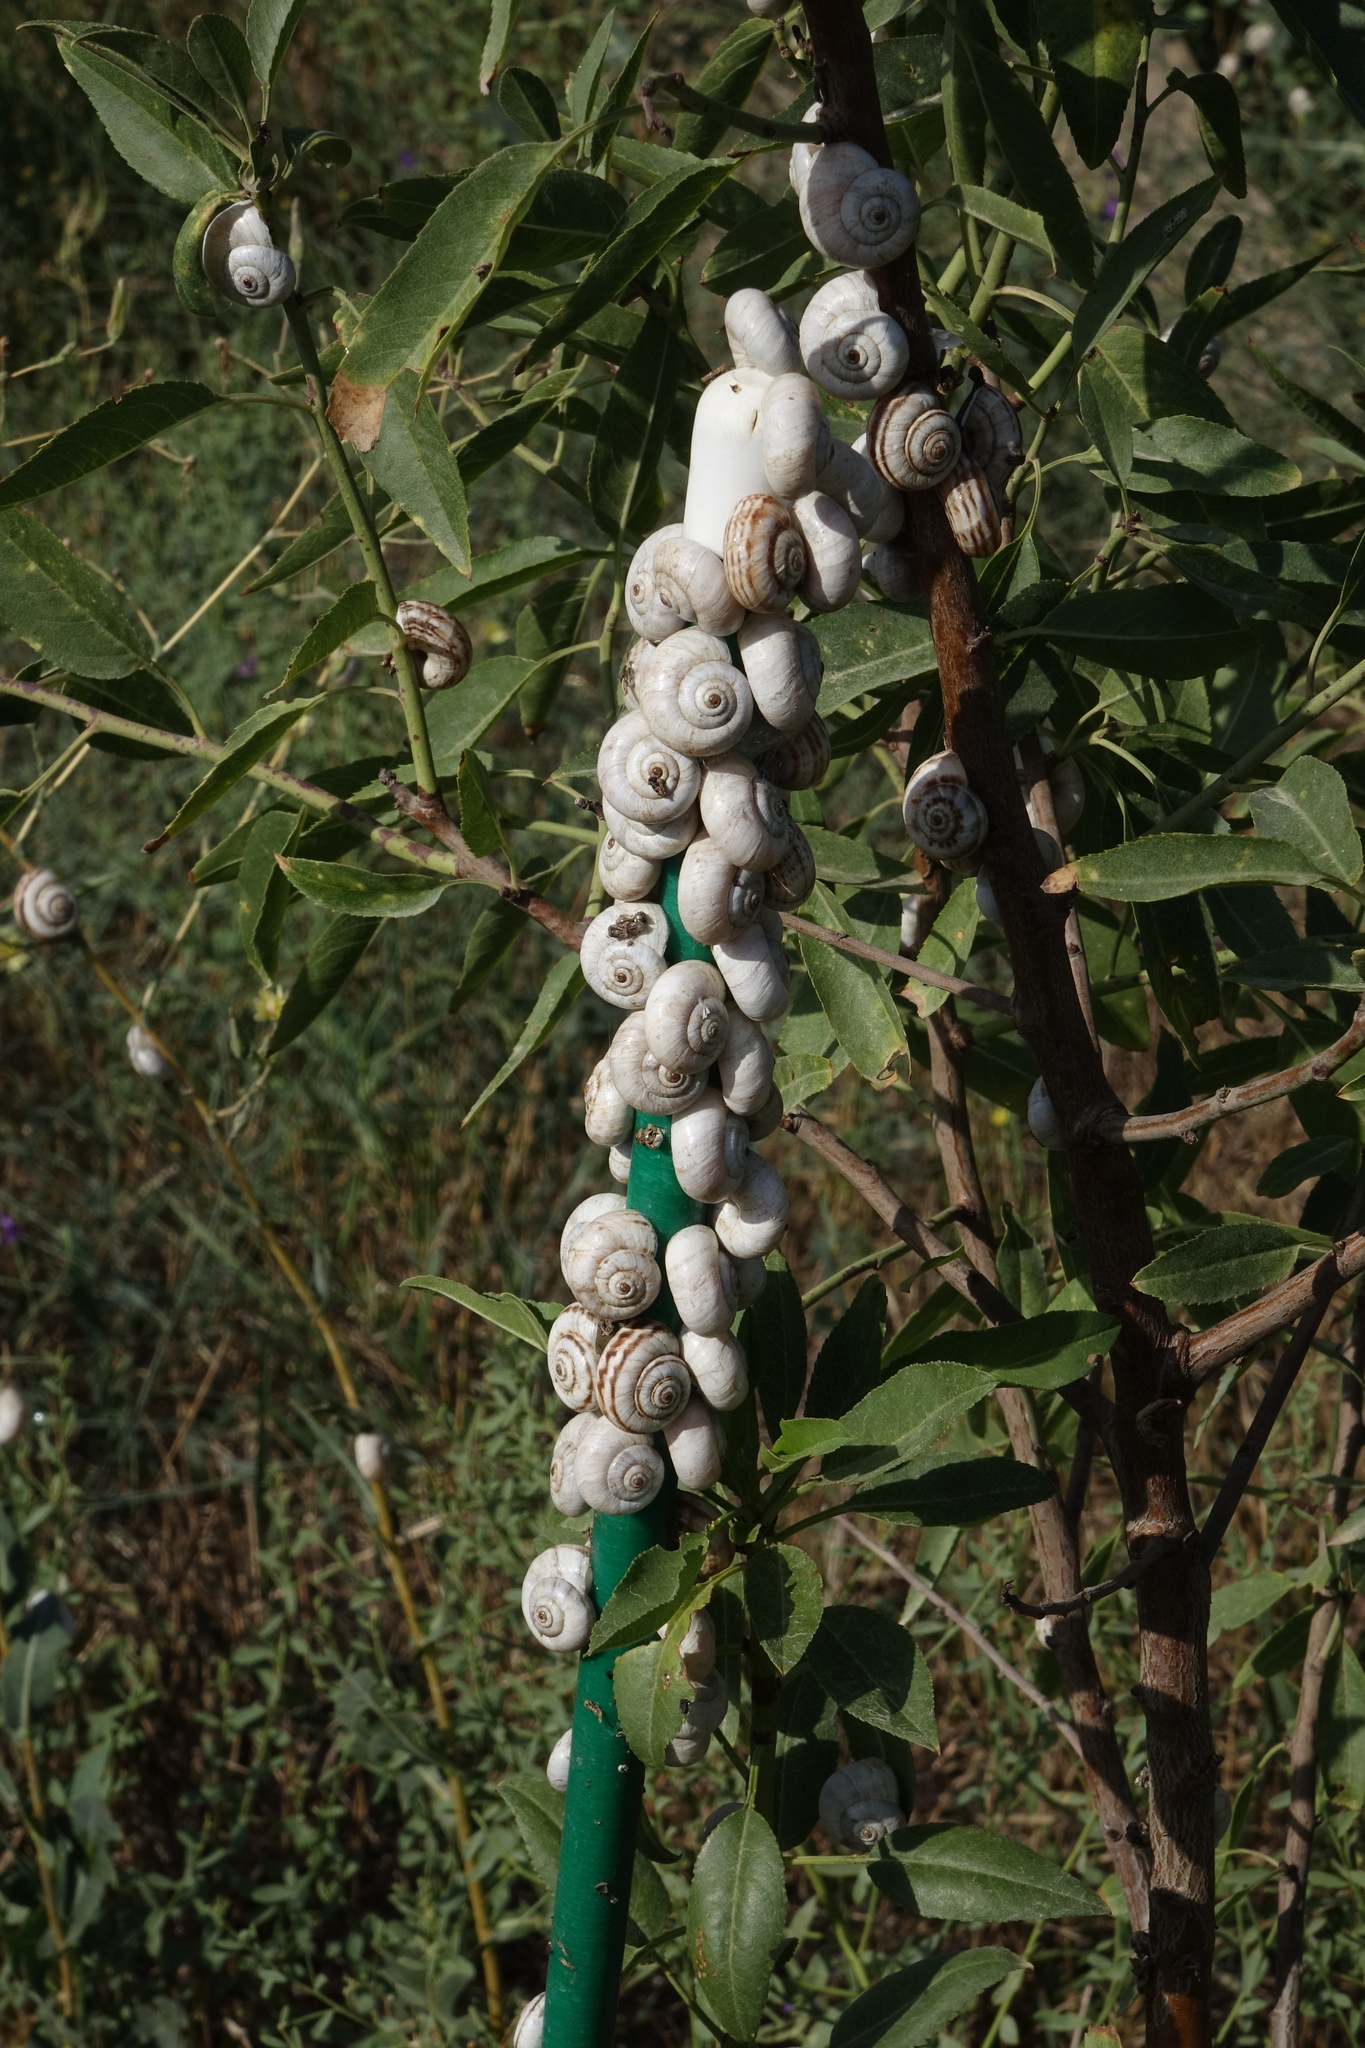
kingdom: Animalia
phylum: Mollusca
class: Gastropoda
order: Stylommatophora
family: Geomitridae
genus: Xeropicta
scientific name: Xeropicta derbentina
